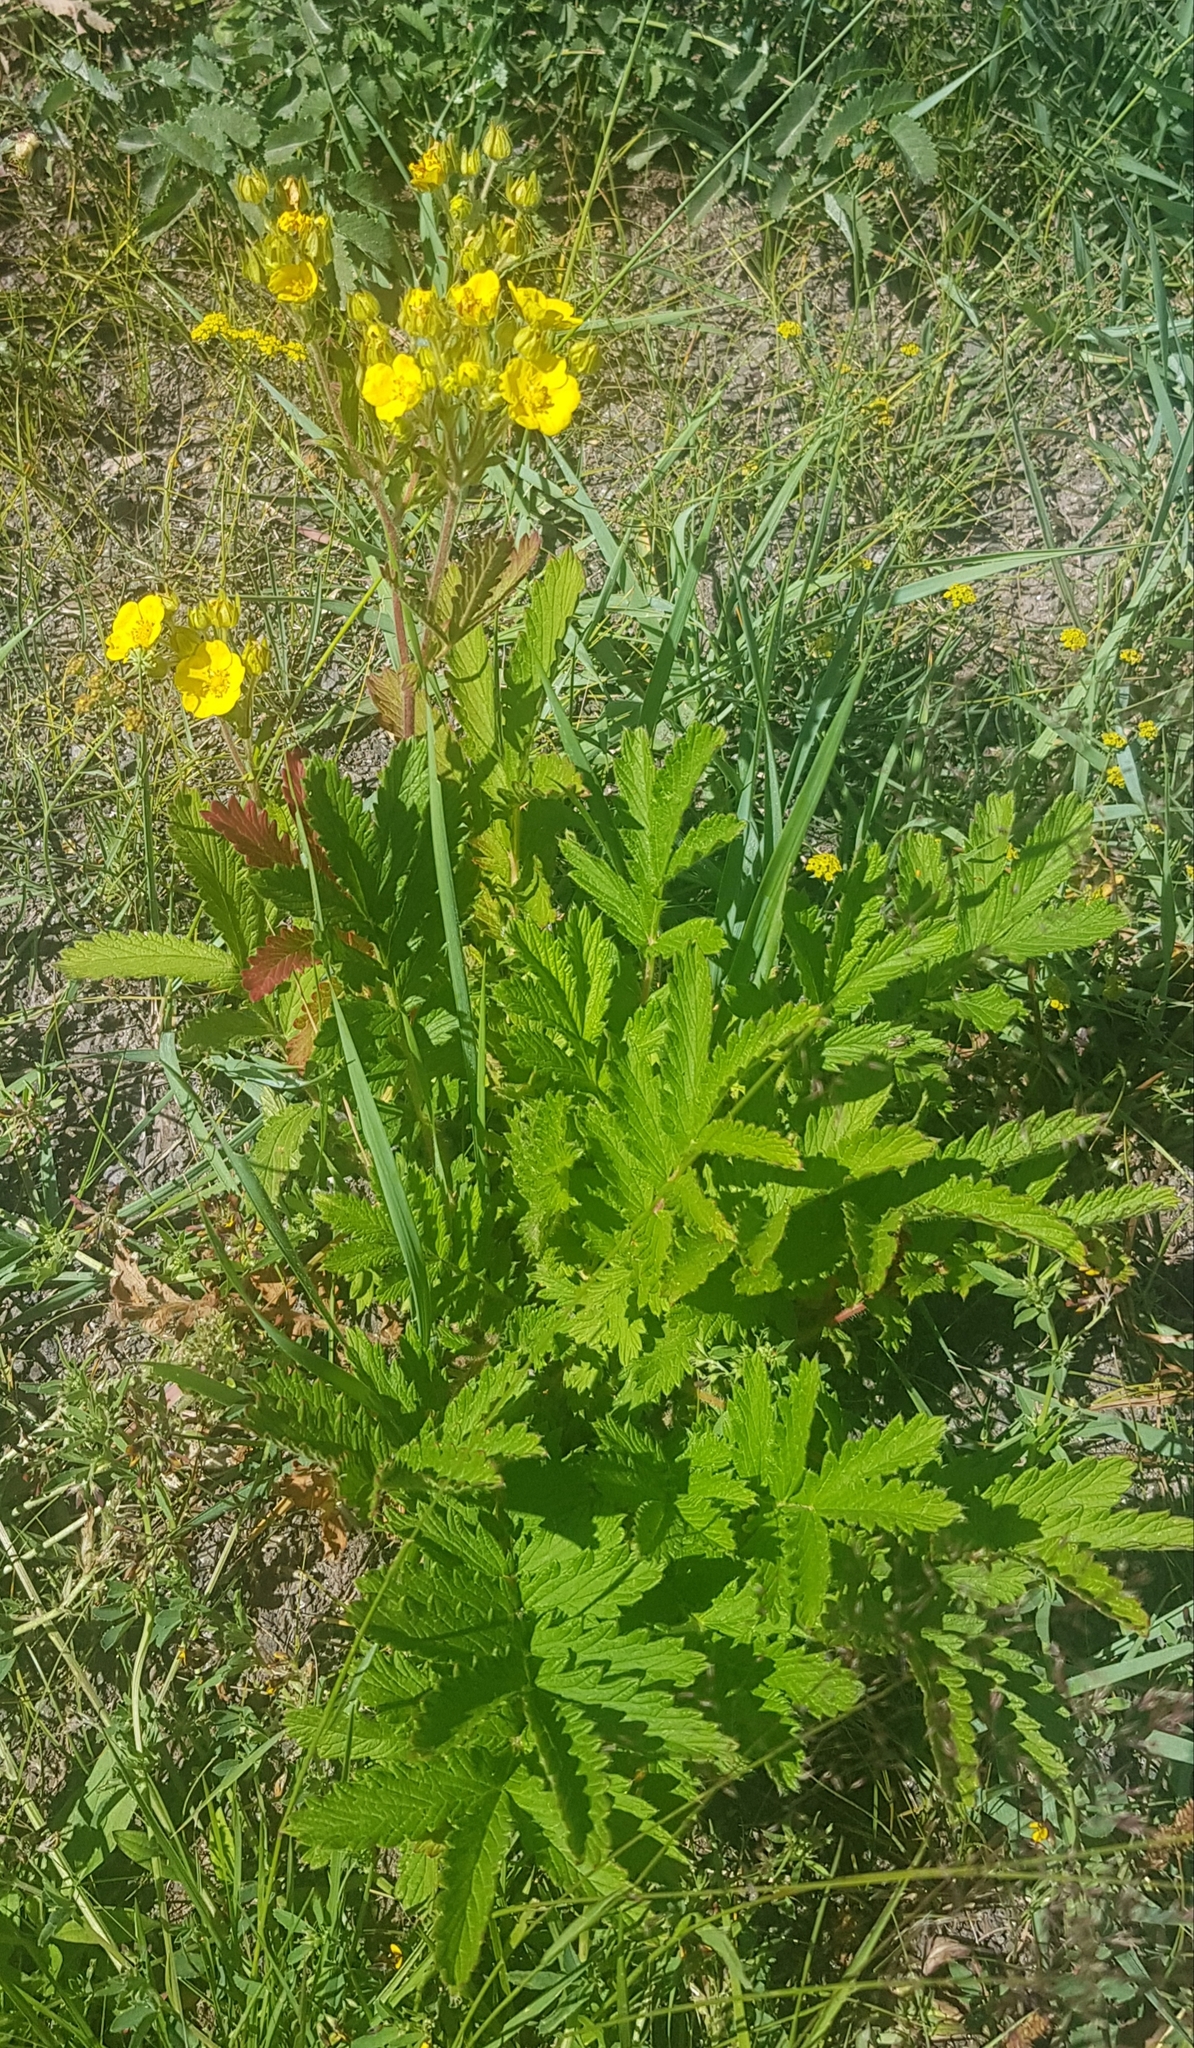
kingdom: Plantae
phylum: Tracheophyta
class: Magnoliopsida
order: Rosales
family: Rosaceae
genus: Potentilla
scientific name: Potentilla tanacetifolia
